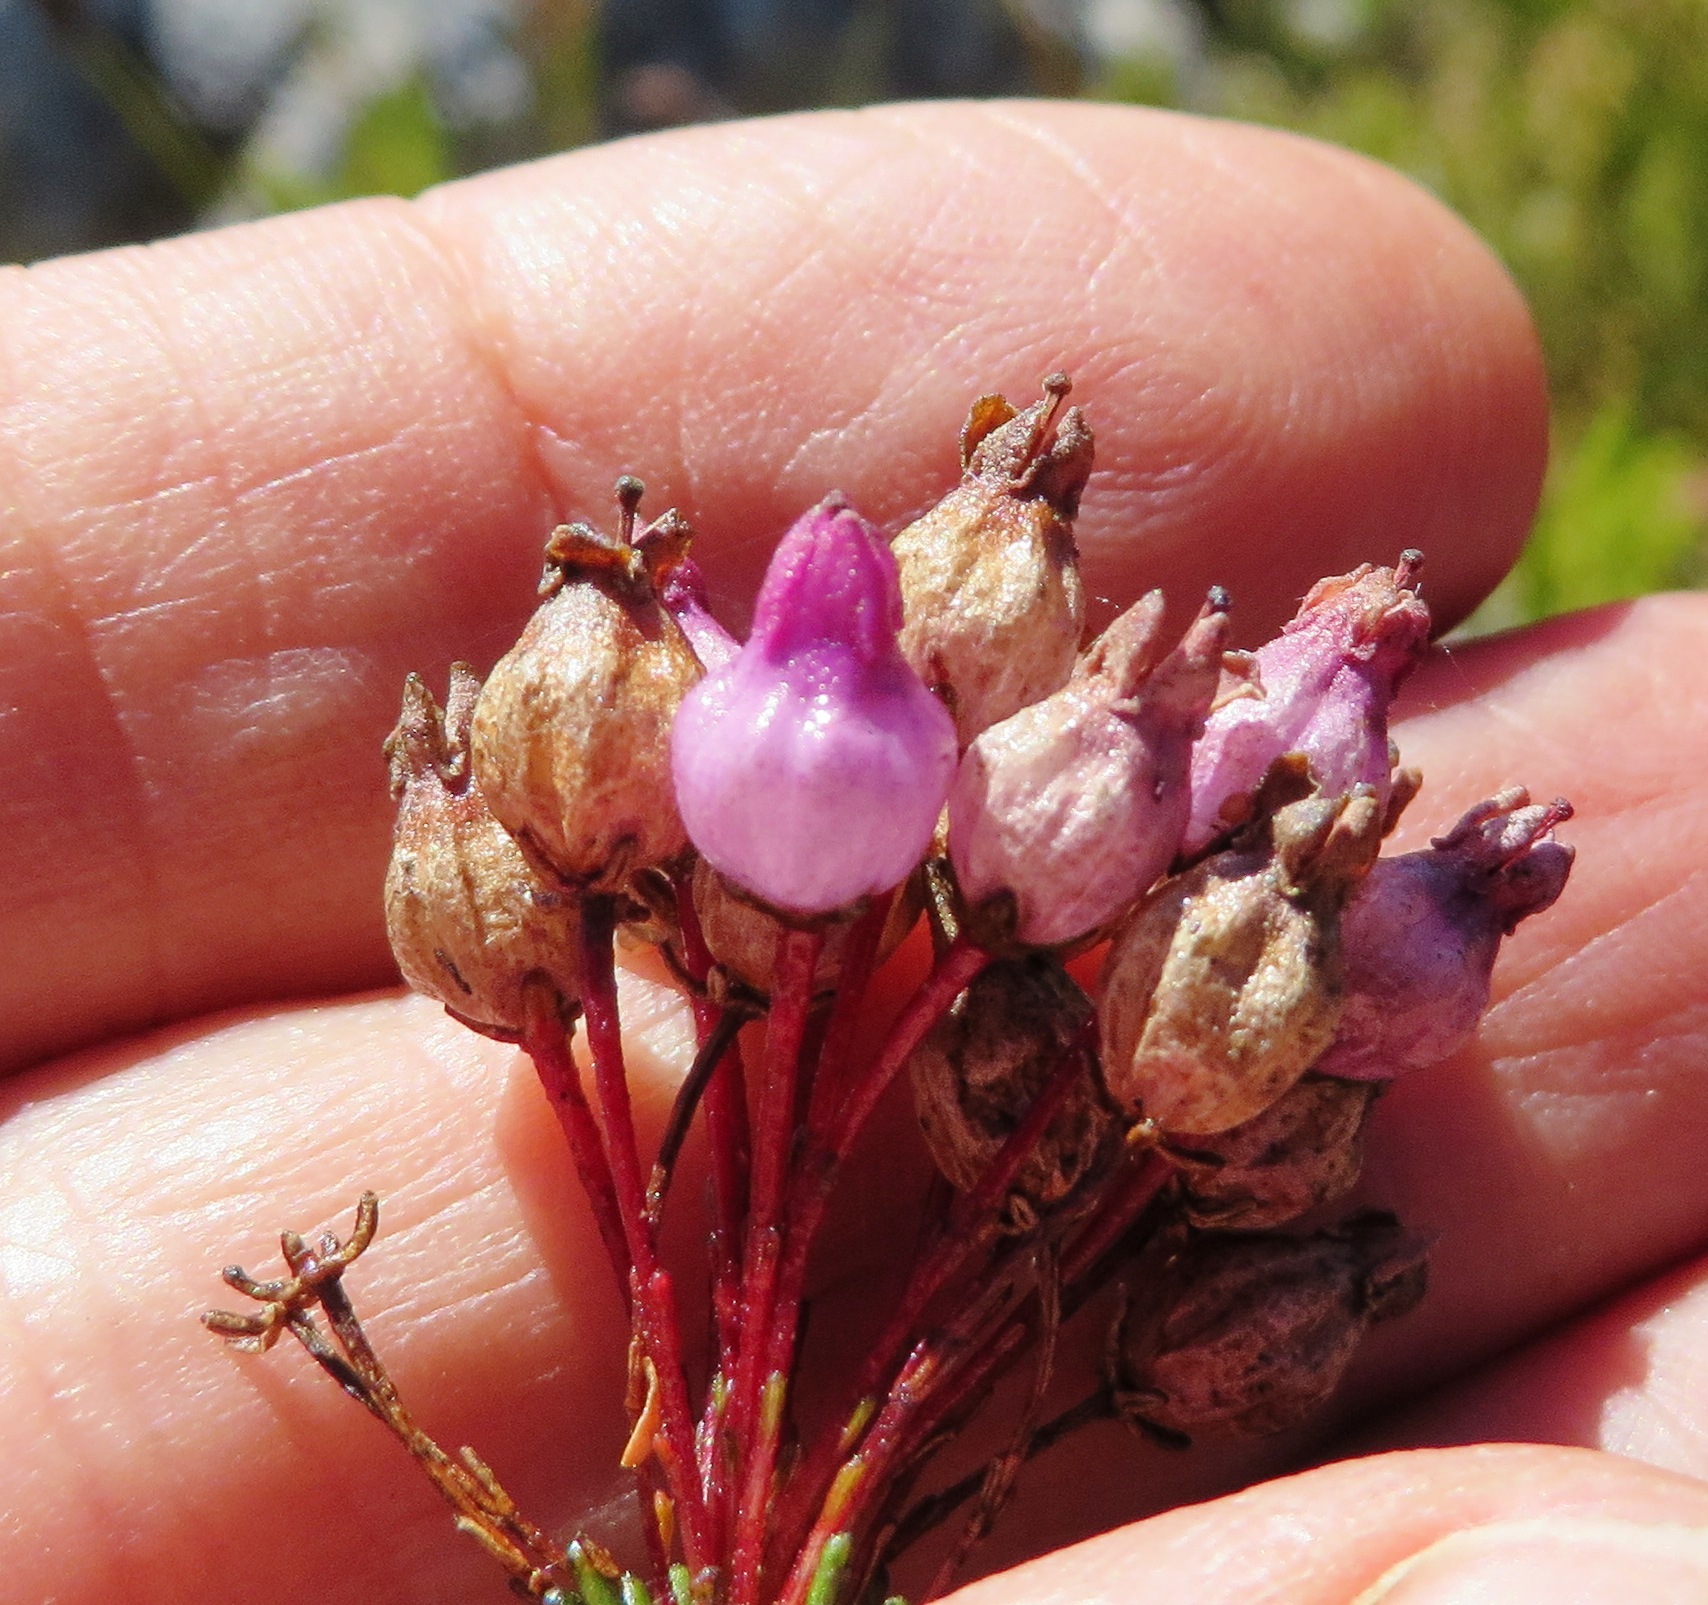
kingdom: Plantae
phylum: Tracheophyta
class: Magnoliopsida
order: Ericales
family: Ericaceae
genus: Erica
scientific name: Erica obliqua
